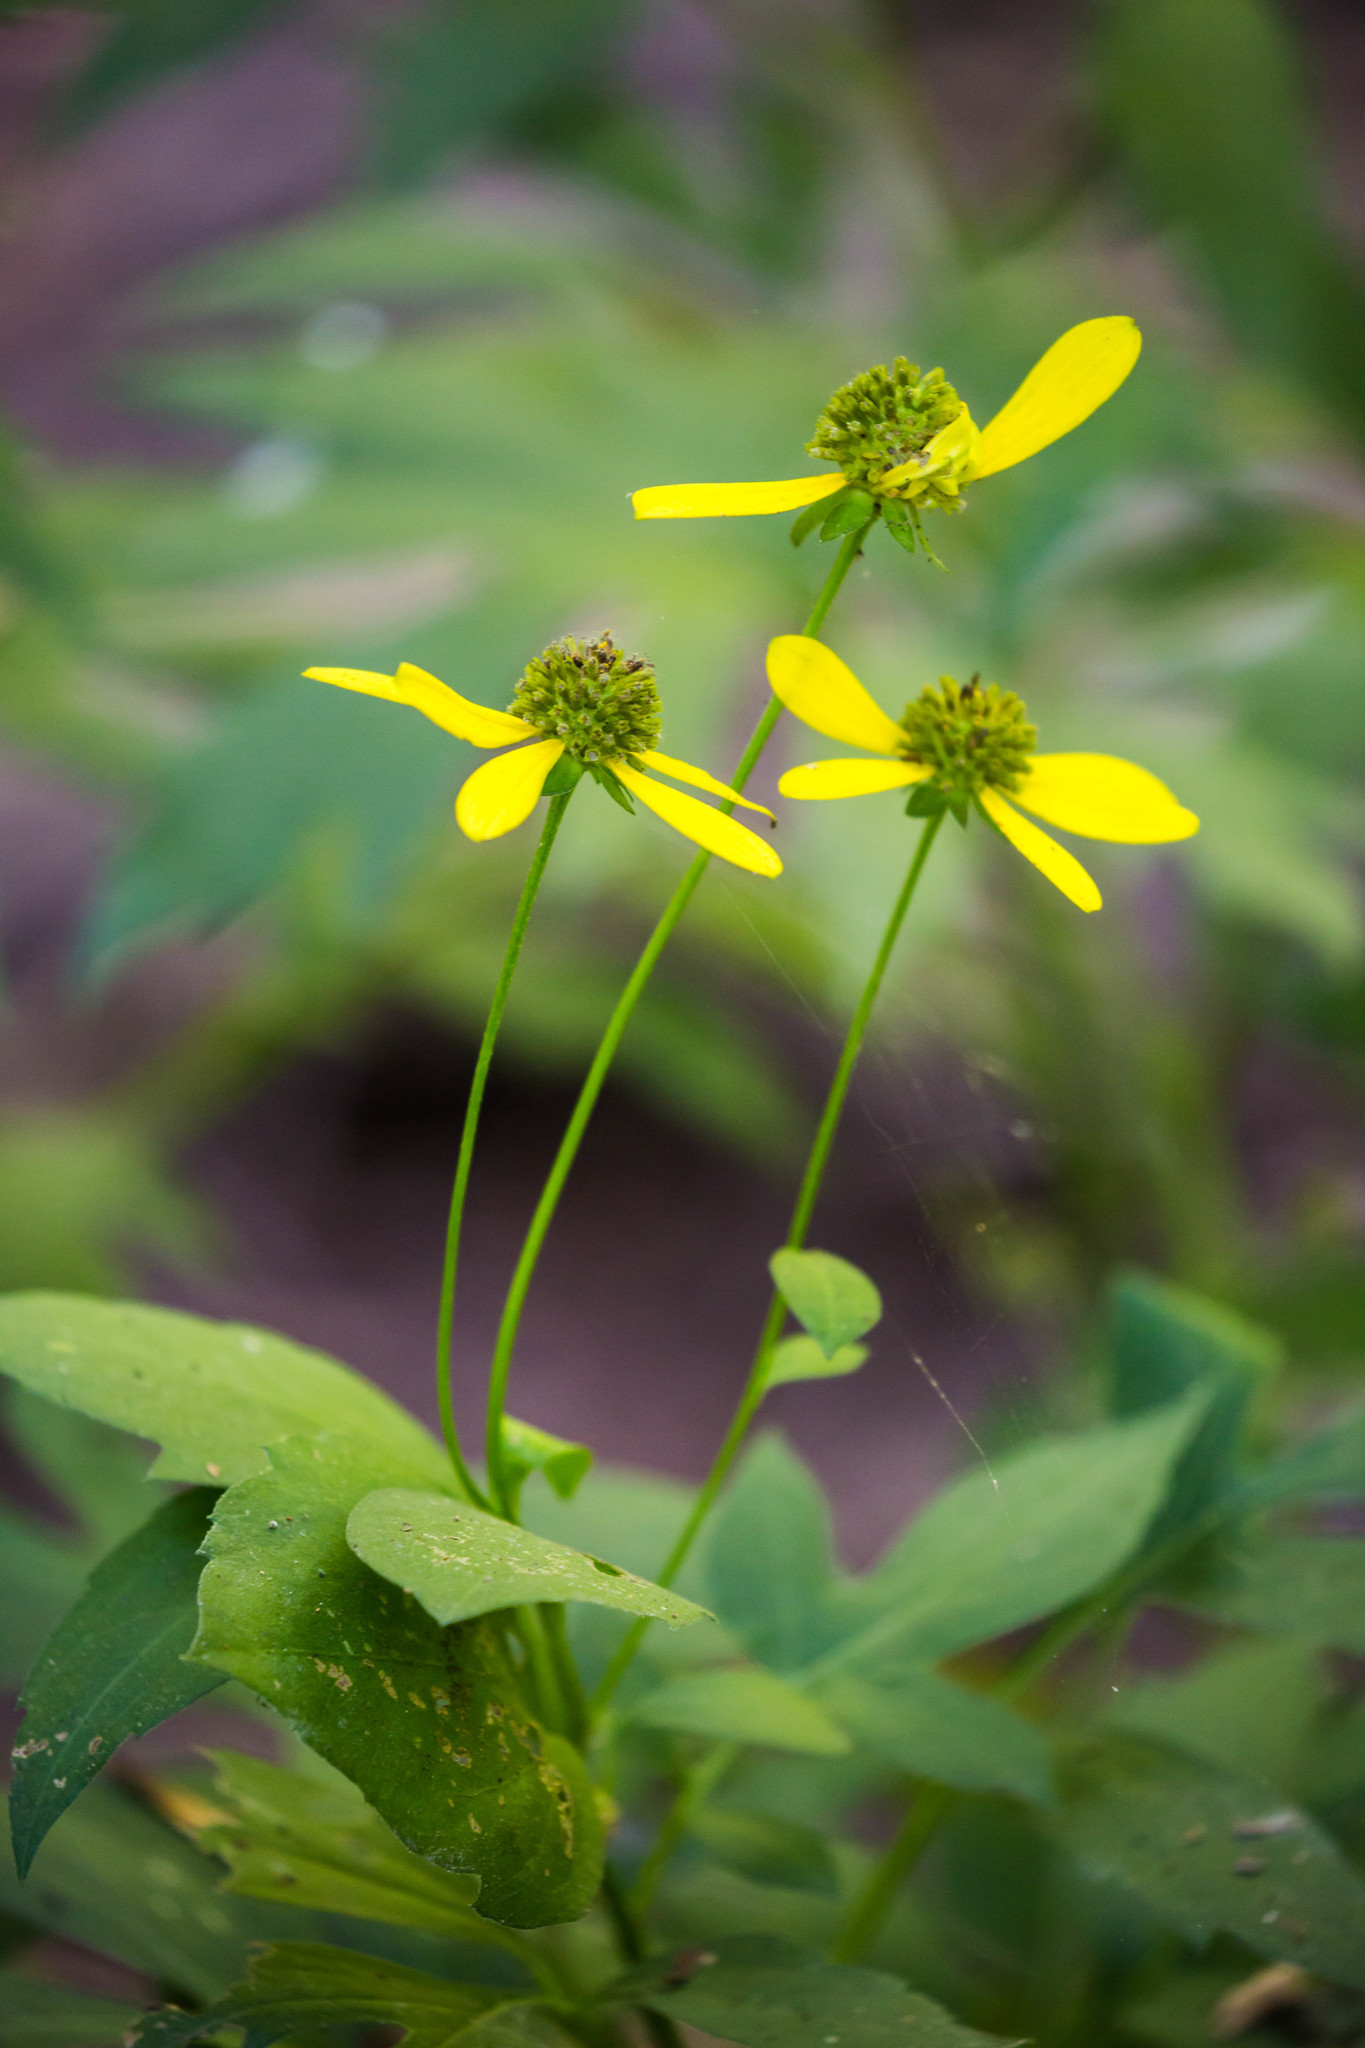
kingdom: Plantae
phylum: Tracheophyta
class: Magnoliopsida
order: Asterales
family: Asteraceae
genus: Rudbeckia
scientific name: Rudbeckia laciniata
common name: Coneflower
